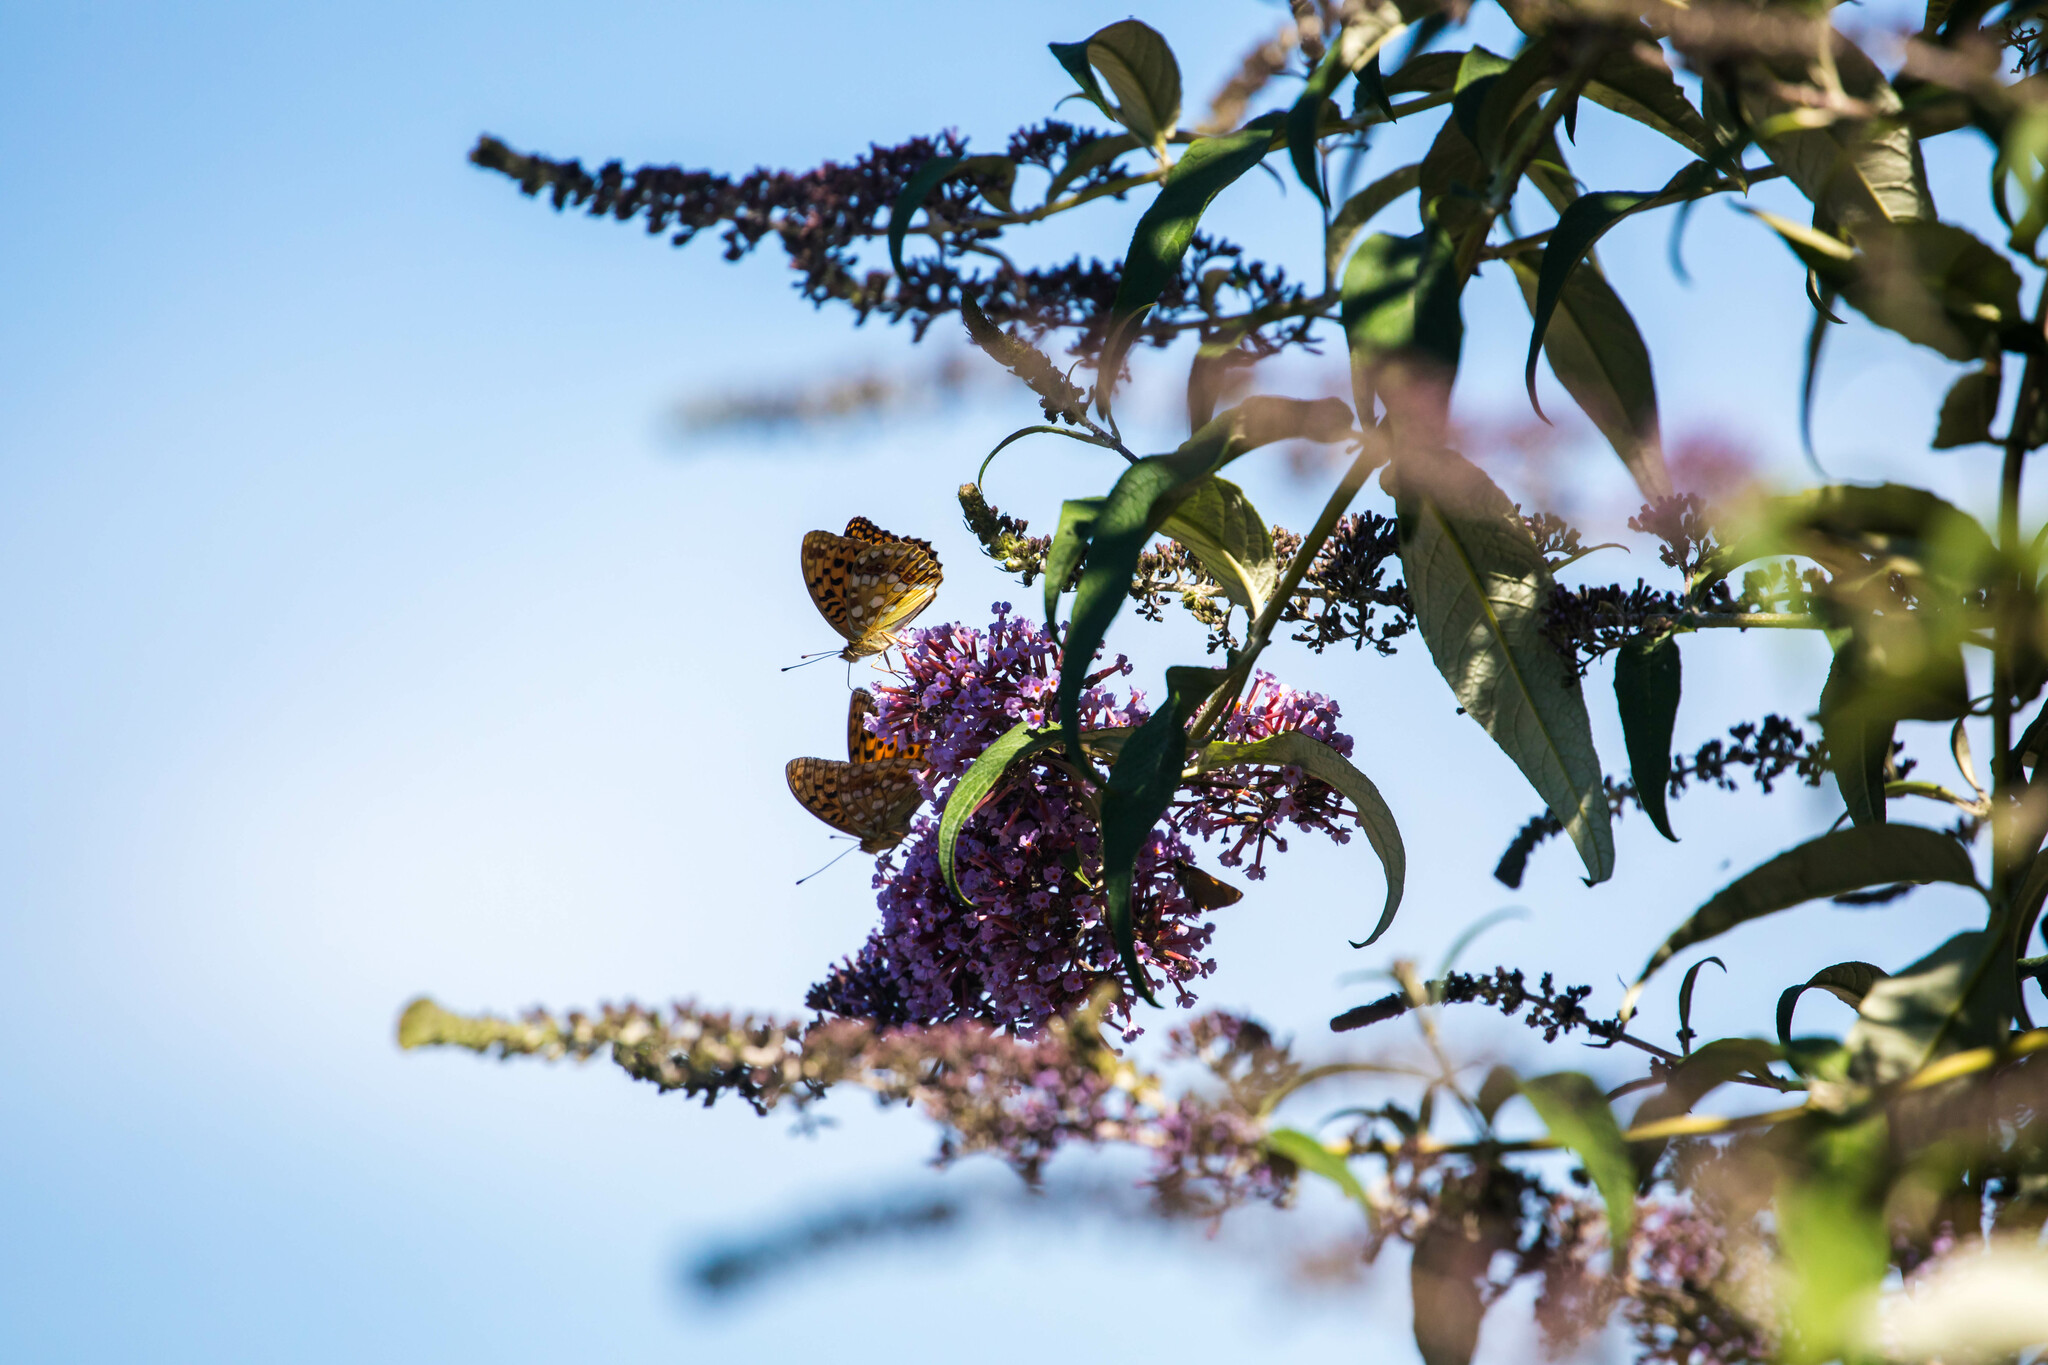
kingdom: Animalia
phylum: Arthropoda
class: Insecta
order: Lepidoptera
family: Nymphalidae
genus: Argynnis
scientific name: Argynnis paphia
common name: Silver-washed fritillary
